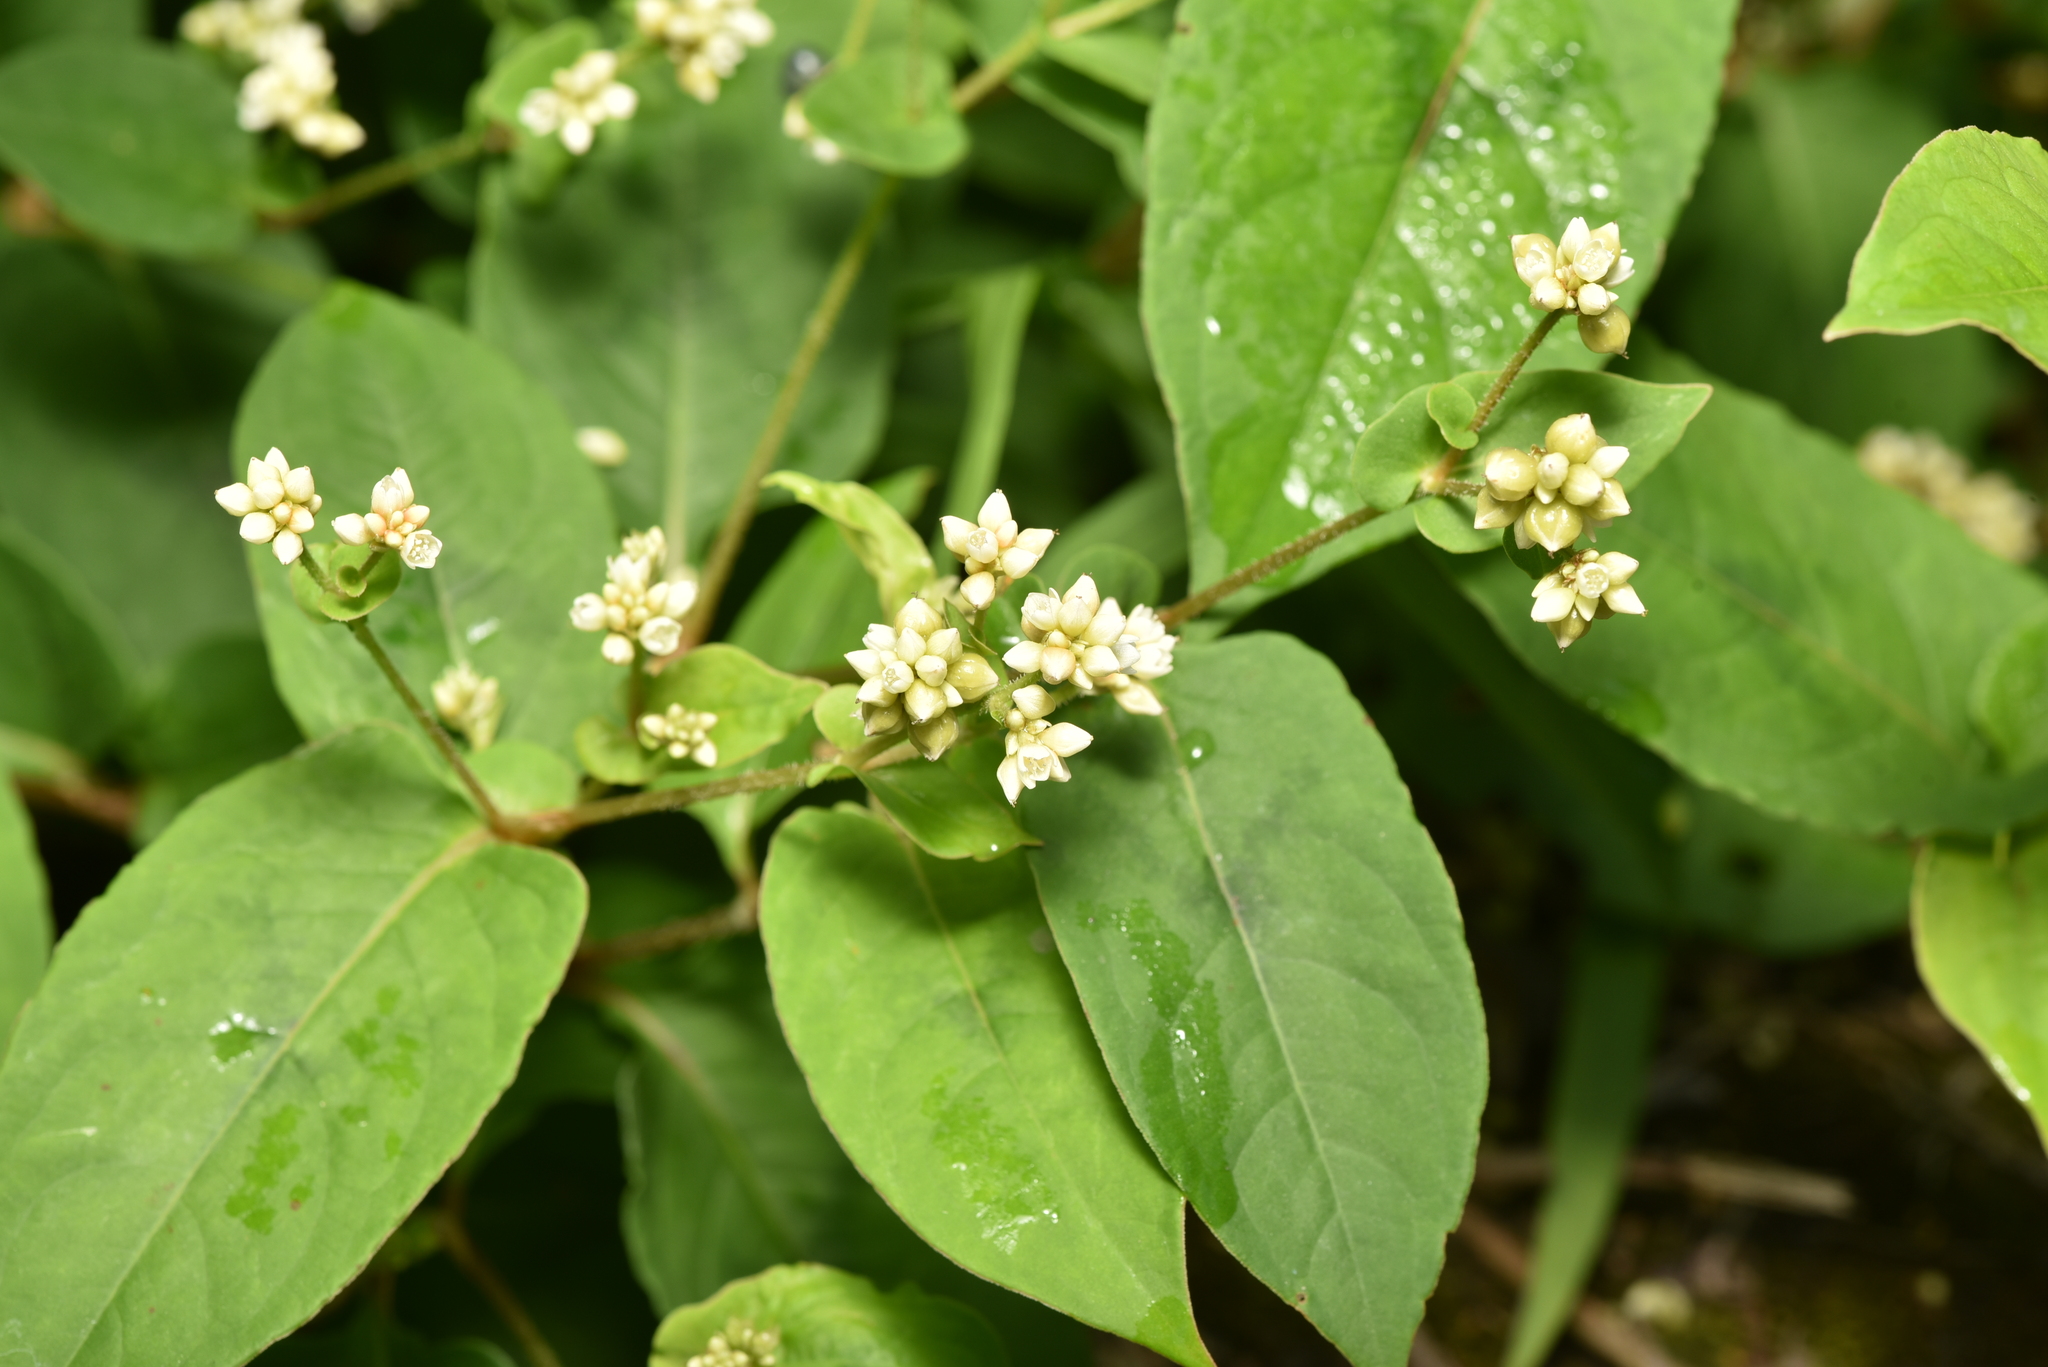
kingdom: Plantae
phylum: Tracheophyta
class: Magnoliopsida
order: Caryophyllales
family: Polygonaceae
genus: Persicaria
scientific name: Persicaria chinensis
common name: Chinese knotweed
